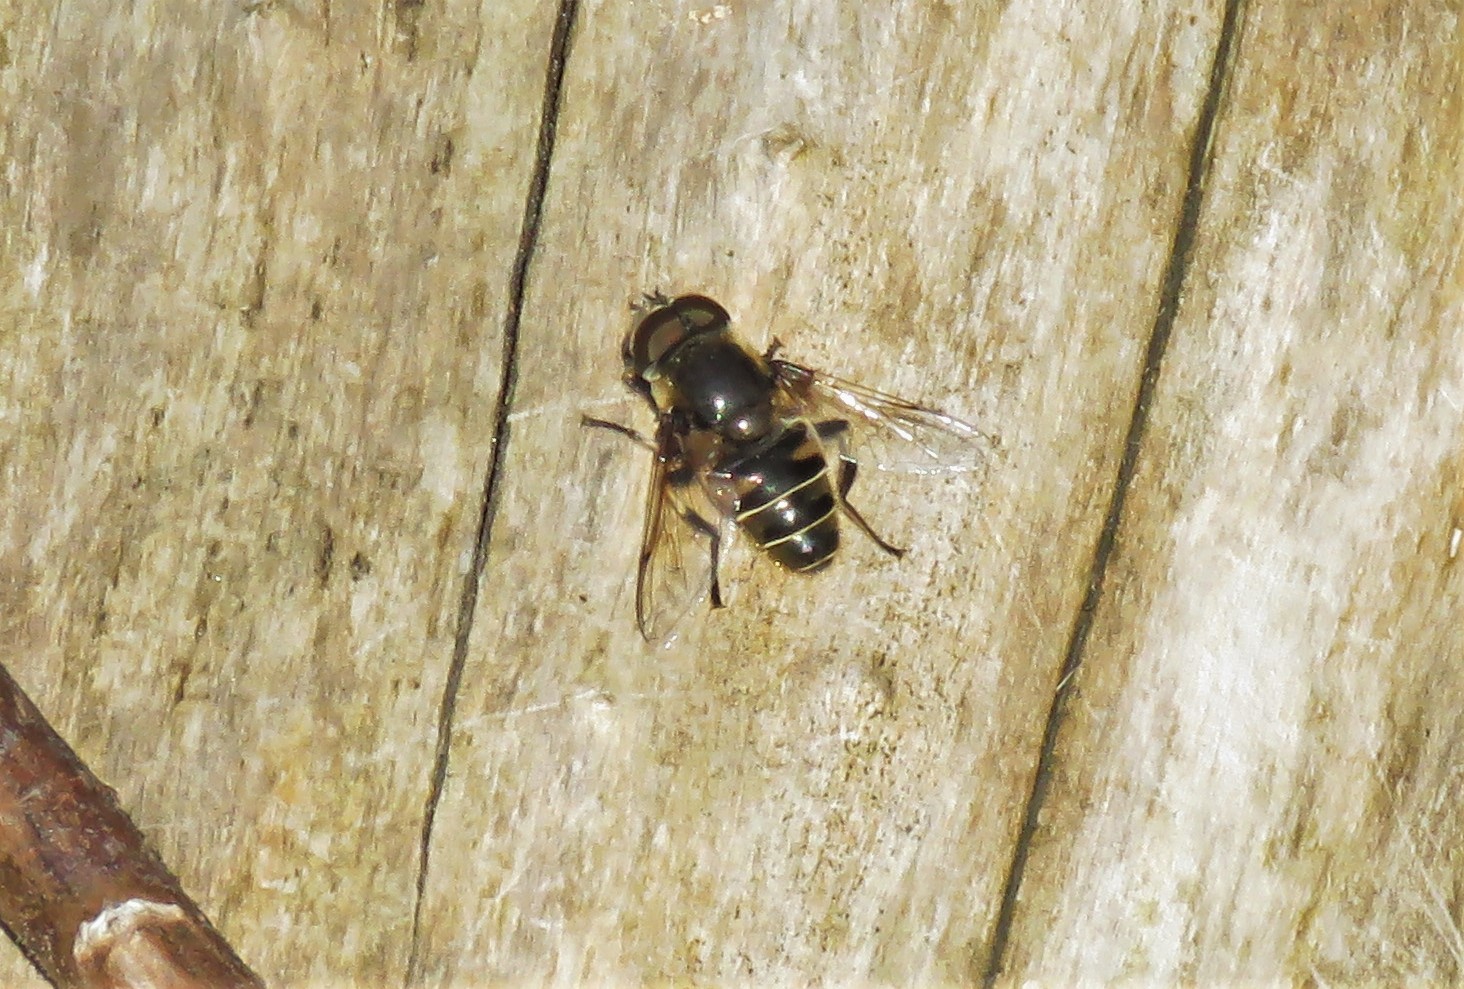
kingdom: Animalia
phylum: Arthropoda
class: Insecta
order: Diptera
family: Syrphidae
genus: Eristalis
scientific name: Eristalis dimidiata
